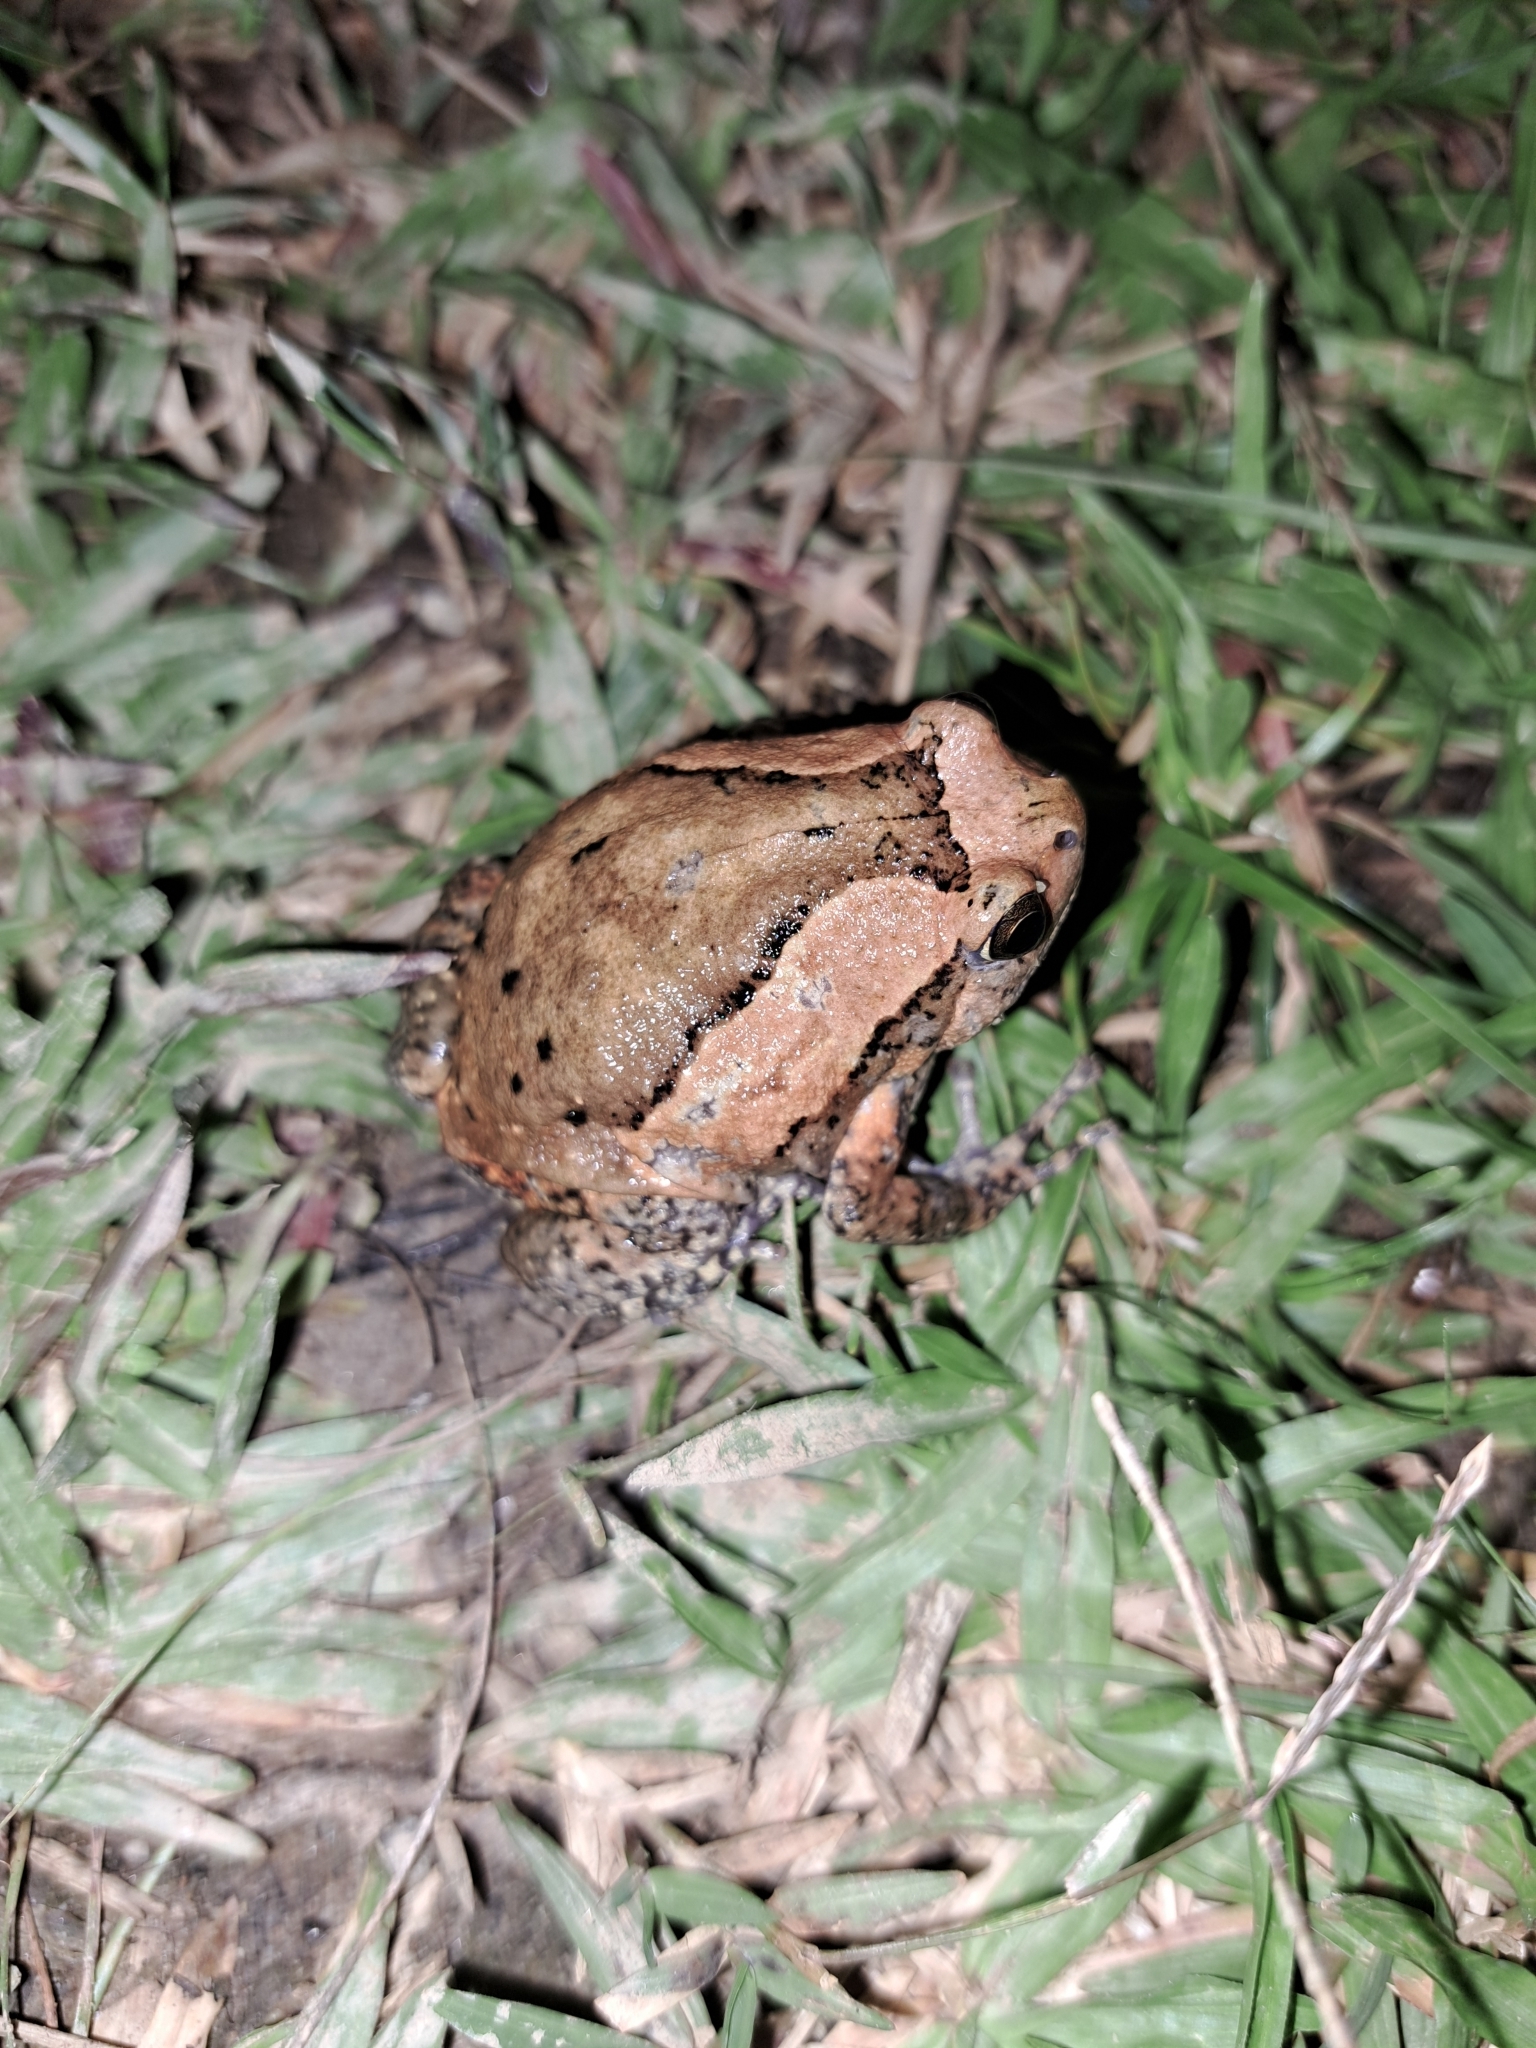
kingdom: Animalia
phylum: Chordata
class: Amphibia
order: Anura
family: Microhylidae
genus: Kaloula
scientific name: Kaloula pulchra
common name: Common,banded bullfrog
